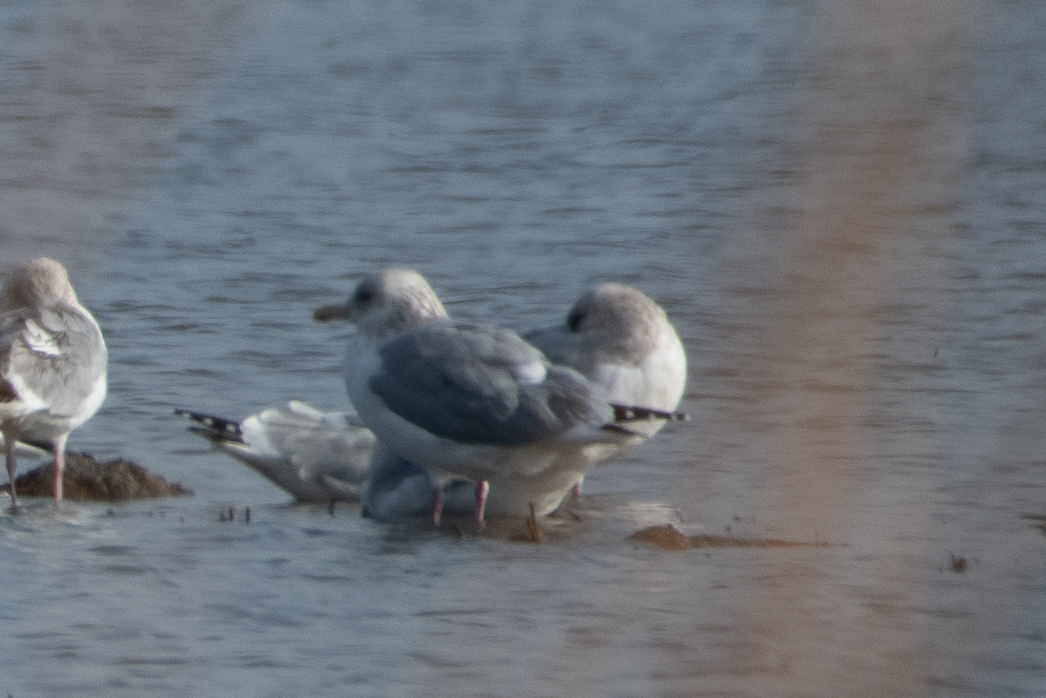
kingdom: Animalia
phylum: Chordata
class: Aves
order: Charadriiformes
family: Laridae
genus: Larus
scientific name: Larus argentatus
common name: Herring gull
